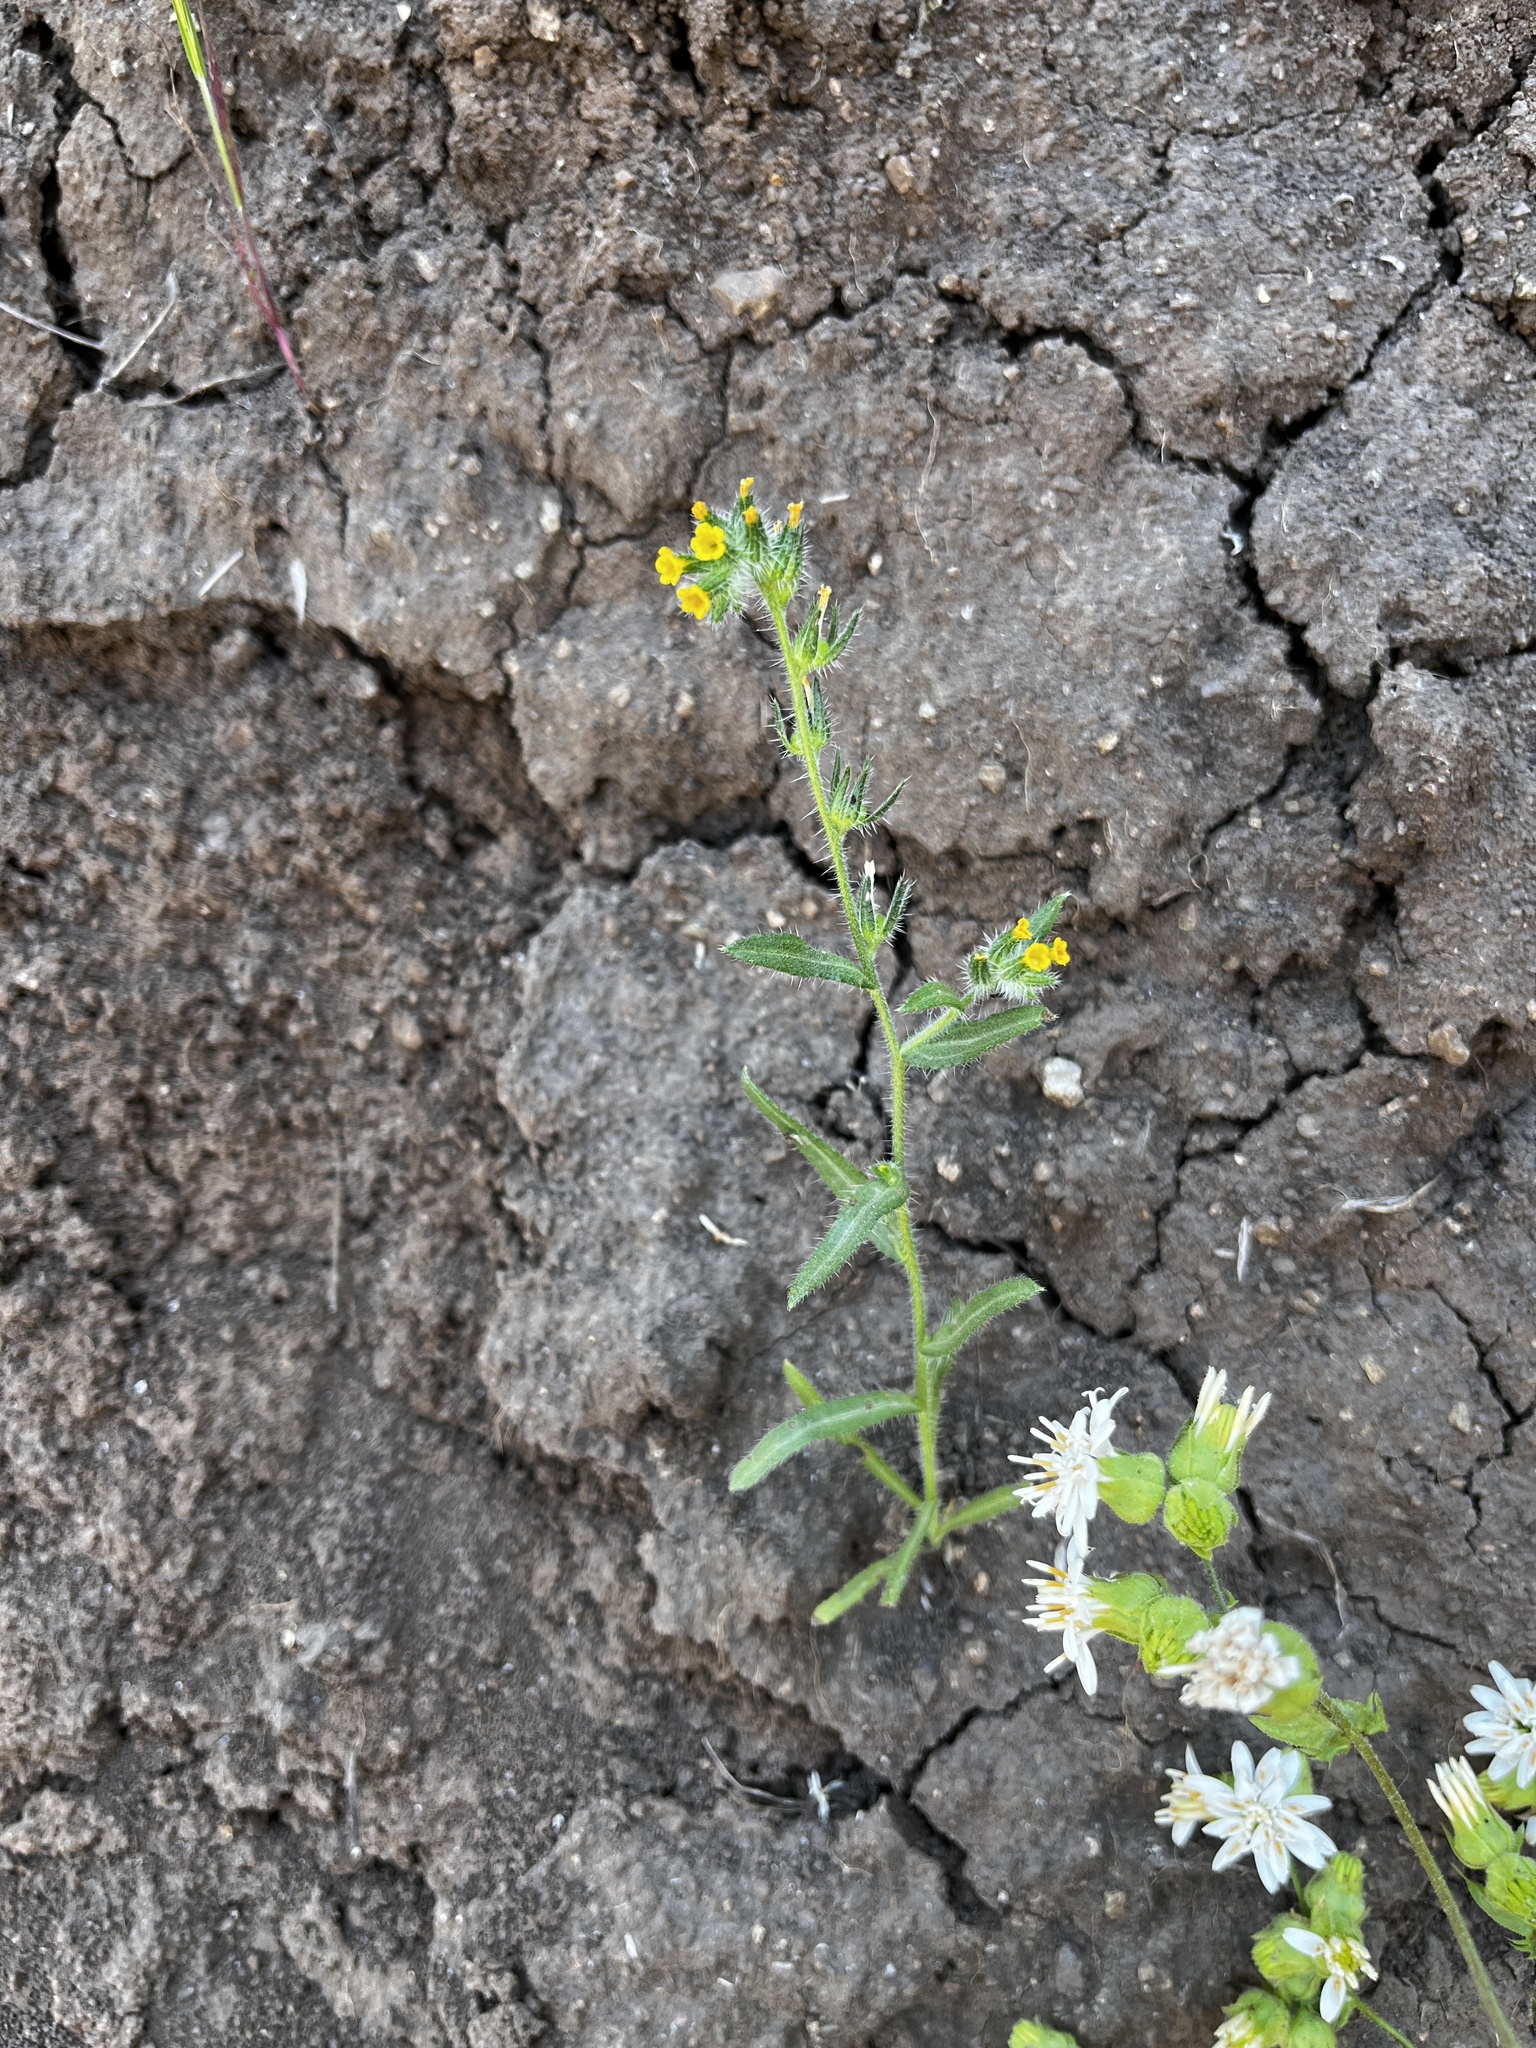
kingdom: Plantae
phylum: Tracheophyta
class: Magnoliopsida
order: Boraginales
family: Boraginaceae
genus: Amsinckia
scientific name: Amsinckia calycina
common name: Hairy fiddleneck
